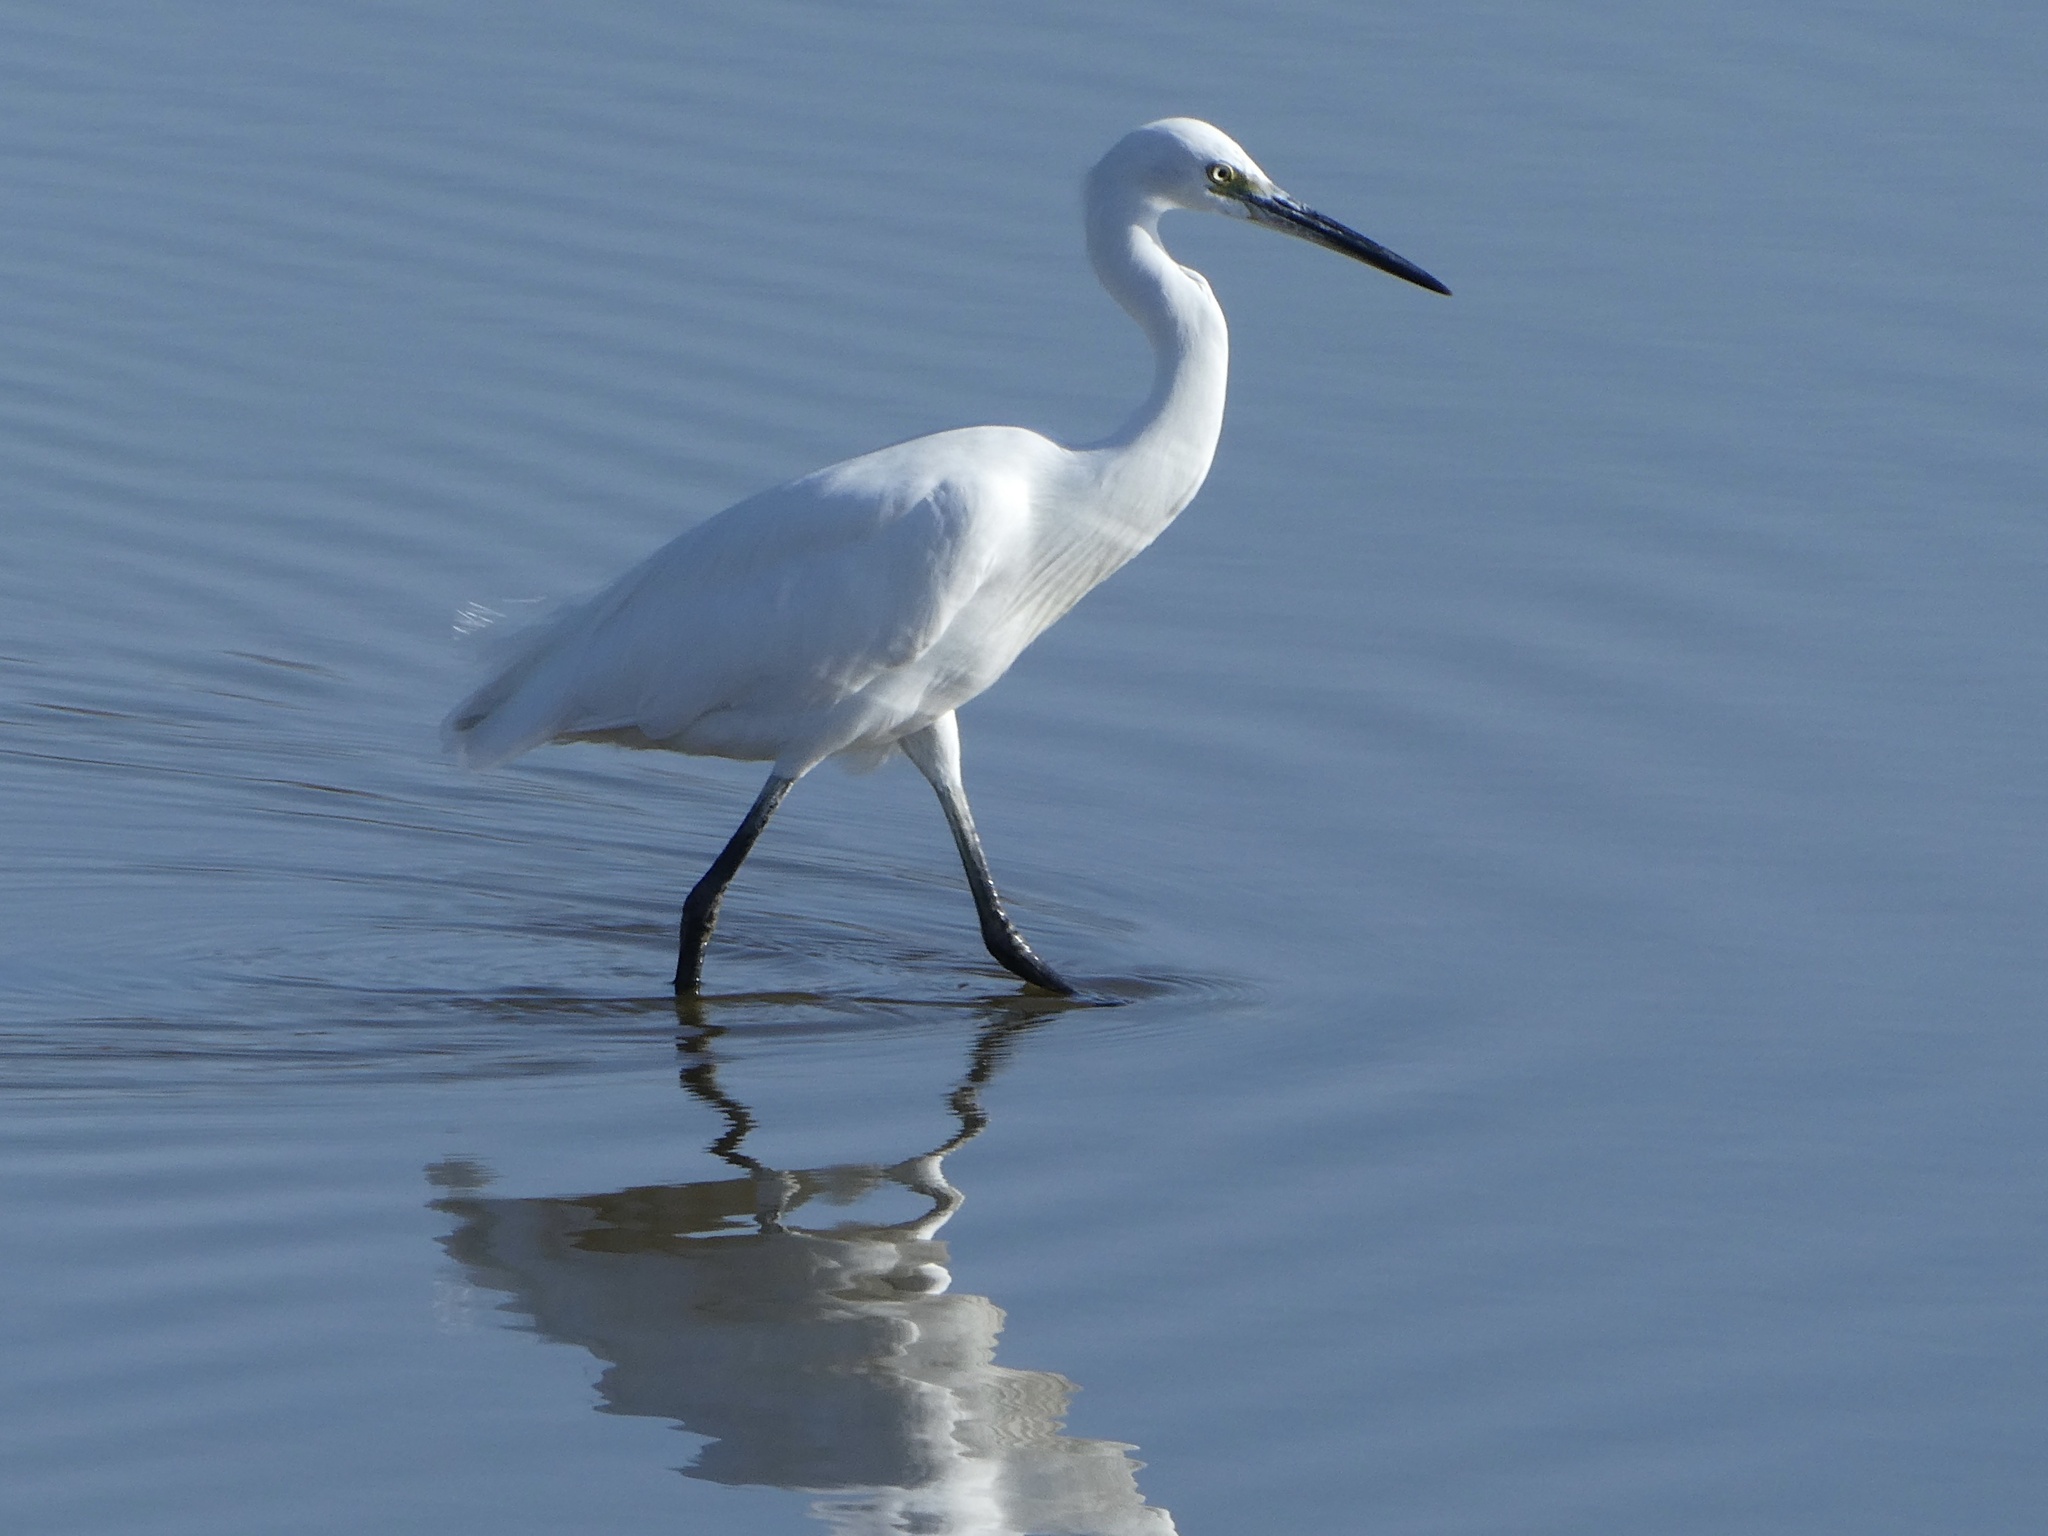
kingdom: Animalia
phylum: Chordata
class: Aves
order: Pelecaniformes
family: Ardeidae
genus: Egretta
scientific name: Egretta garzetta
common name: Little egret
